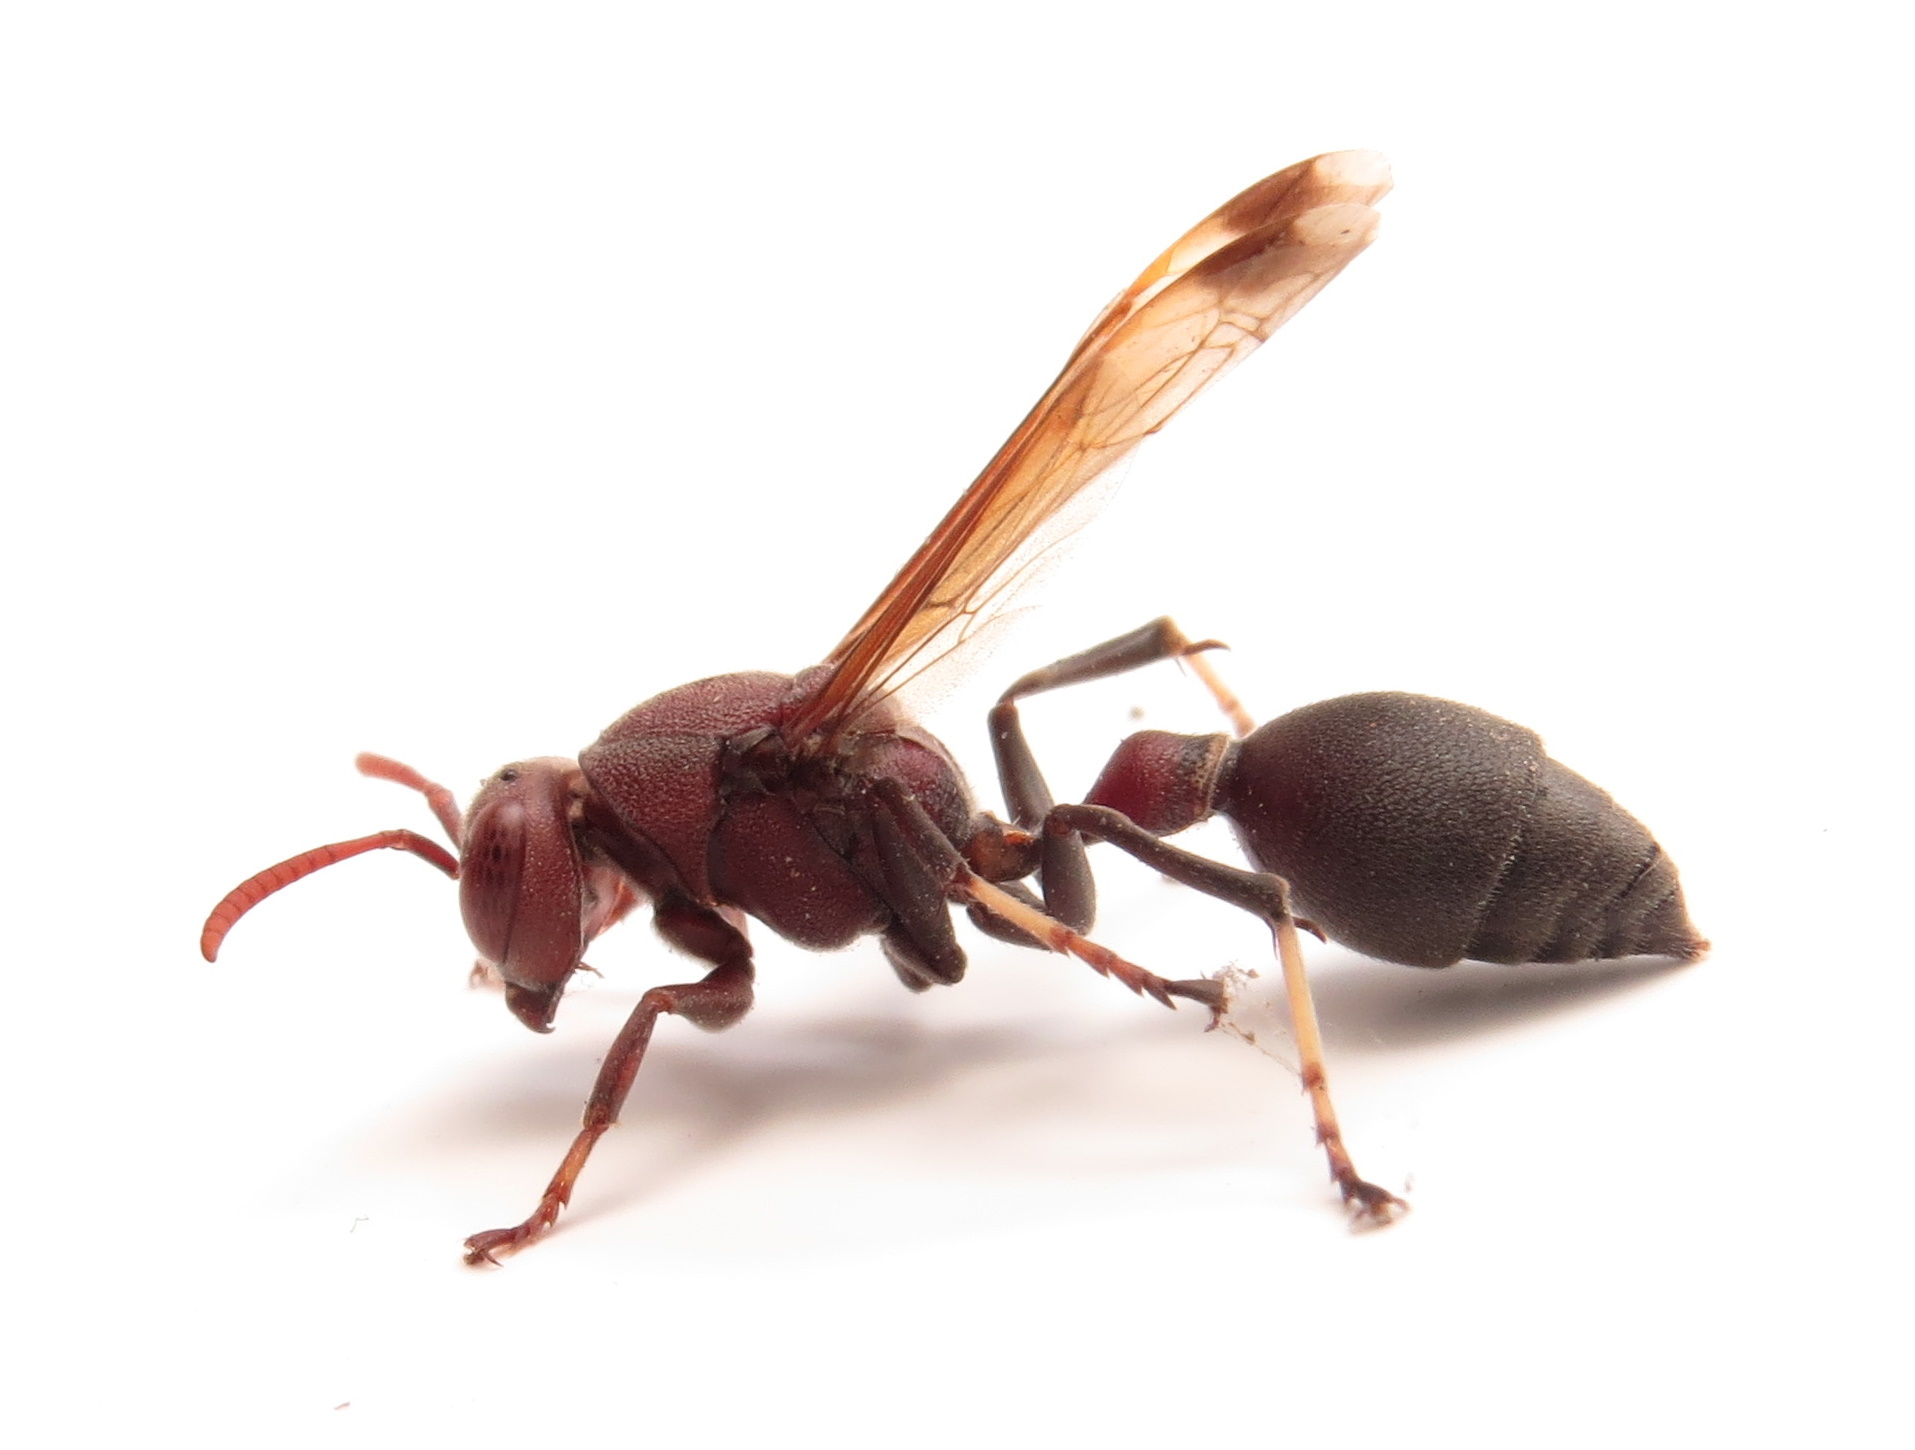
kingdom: Animalia
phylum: Arthropoda
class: Insecta
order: Hymenoptera
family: Vespidae
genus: Ropalidia
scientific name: Ropalidia magnanima
